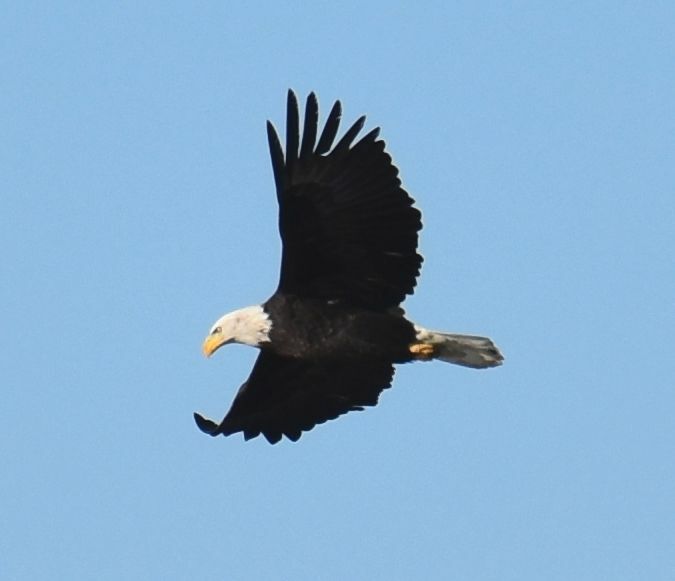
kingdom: Animalia
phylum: Chordata
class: Aves
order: Accipitriformes
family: Accipitridae
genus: Haliaeetus
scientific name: Haliaeetus leucocephalus
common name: Bald eagle
